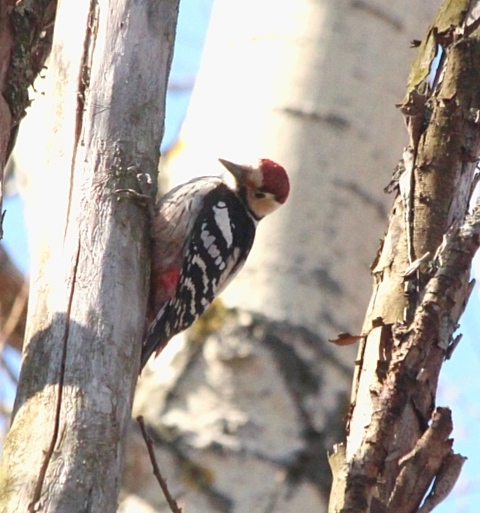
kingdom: Animalia
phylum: Chordata
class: Aves
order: Piciformes
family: Picidae
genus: Dendrocopos
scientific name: Dendrocopos leucotos
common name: White-backed woodpecker
